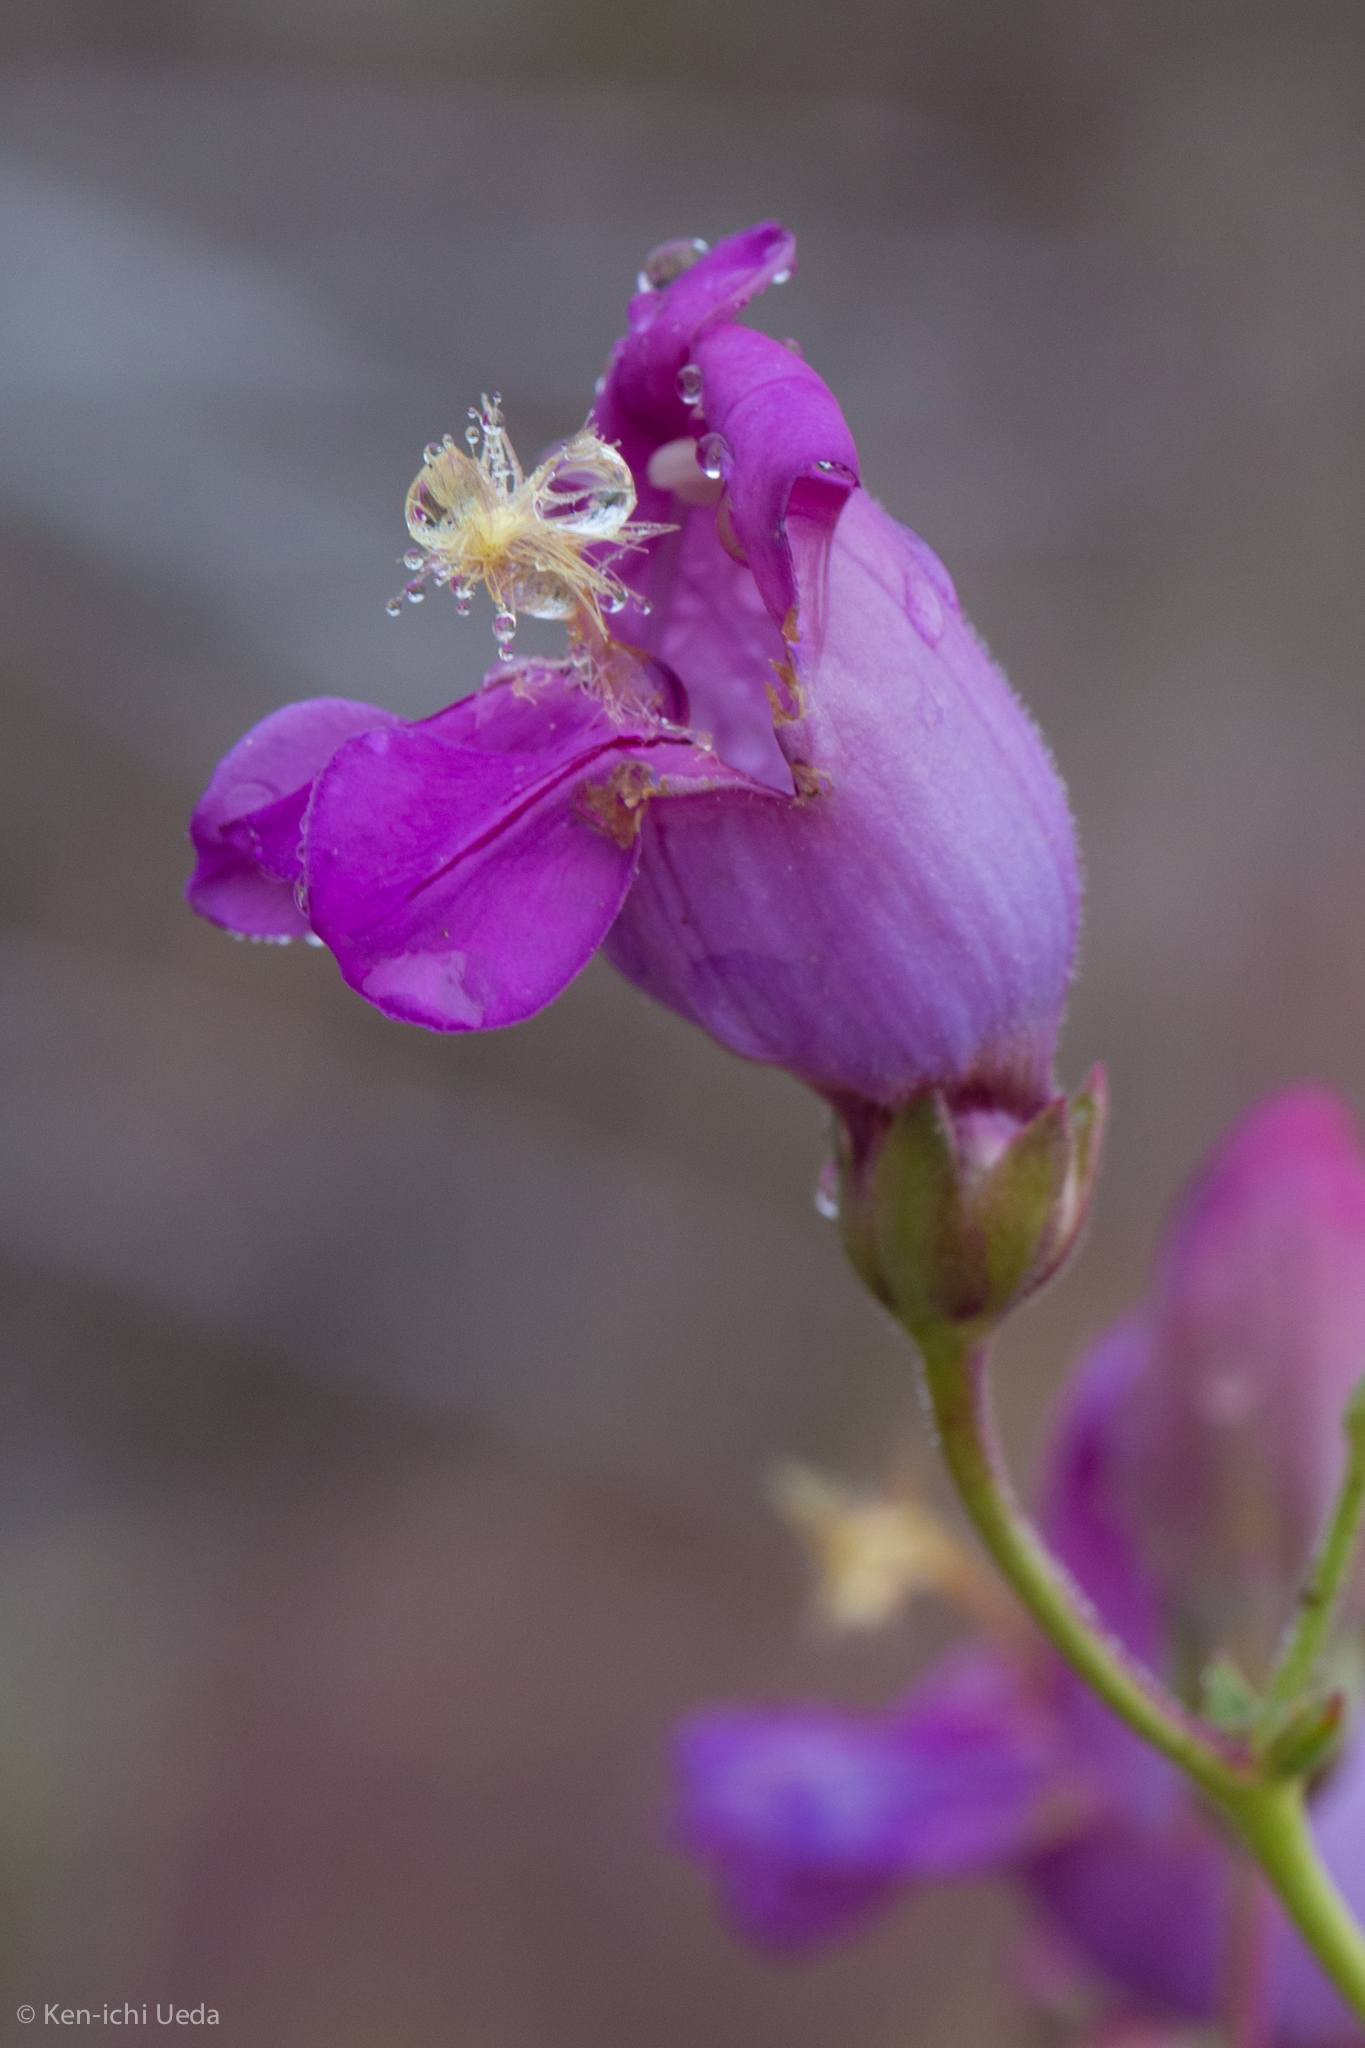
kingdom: Plantae
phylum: Tracheophyta
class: Magnoliopsida
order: Lamiales
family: Plantaginaceae
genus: Penstemon
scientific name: Penstemon grinnellii
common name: Grinnell's beardtongue
